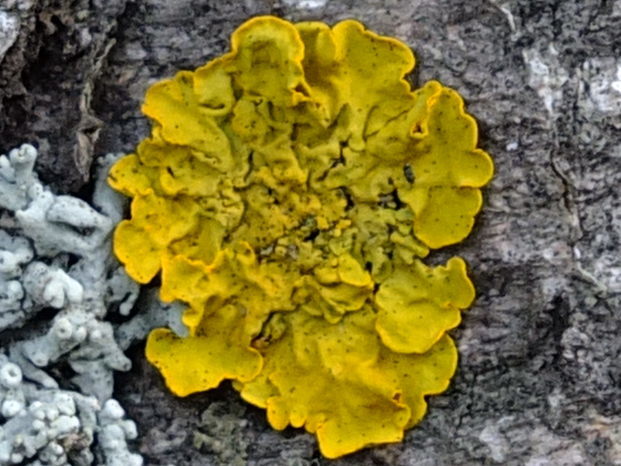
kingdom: Fungi
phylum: Ascomycota
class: Lecanoromycetes
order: Teloschistales
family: Teloschistaceae
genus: Xanthoria
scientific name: Xanthoria parietina
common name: Common orange lichen
